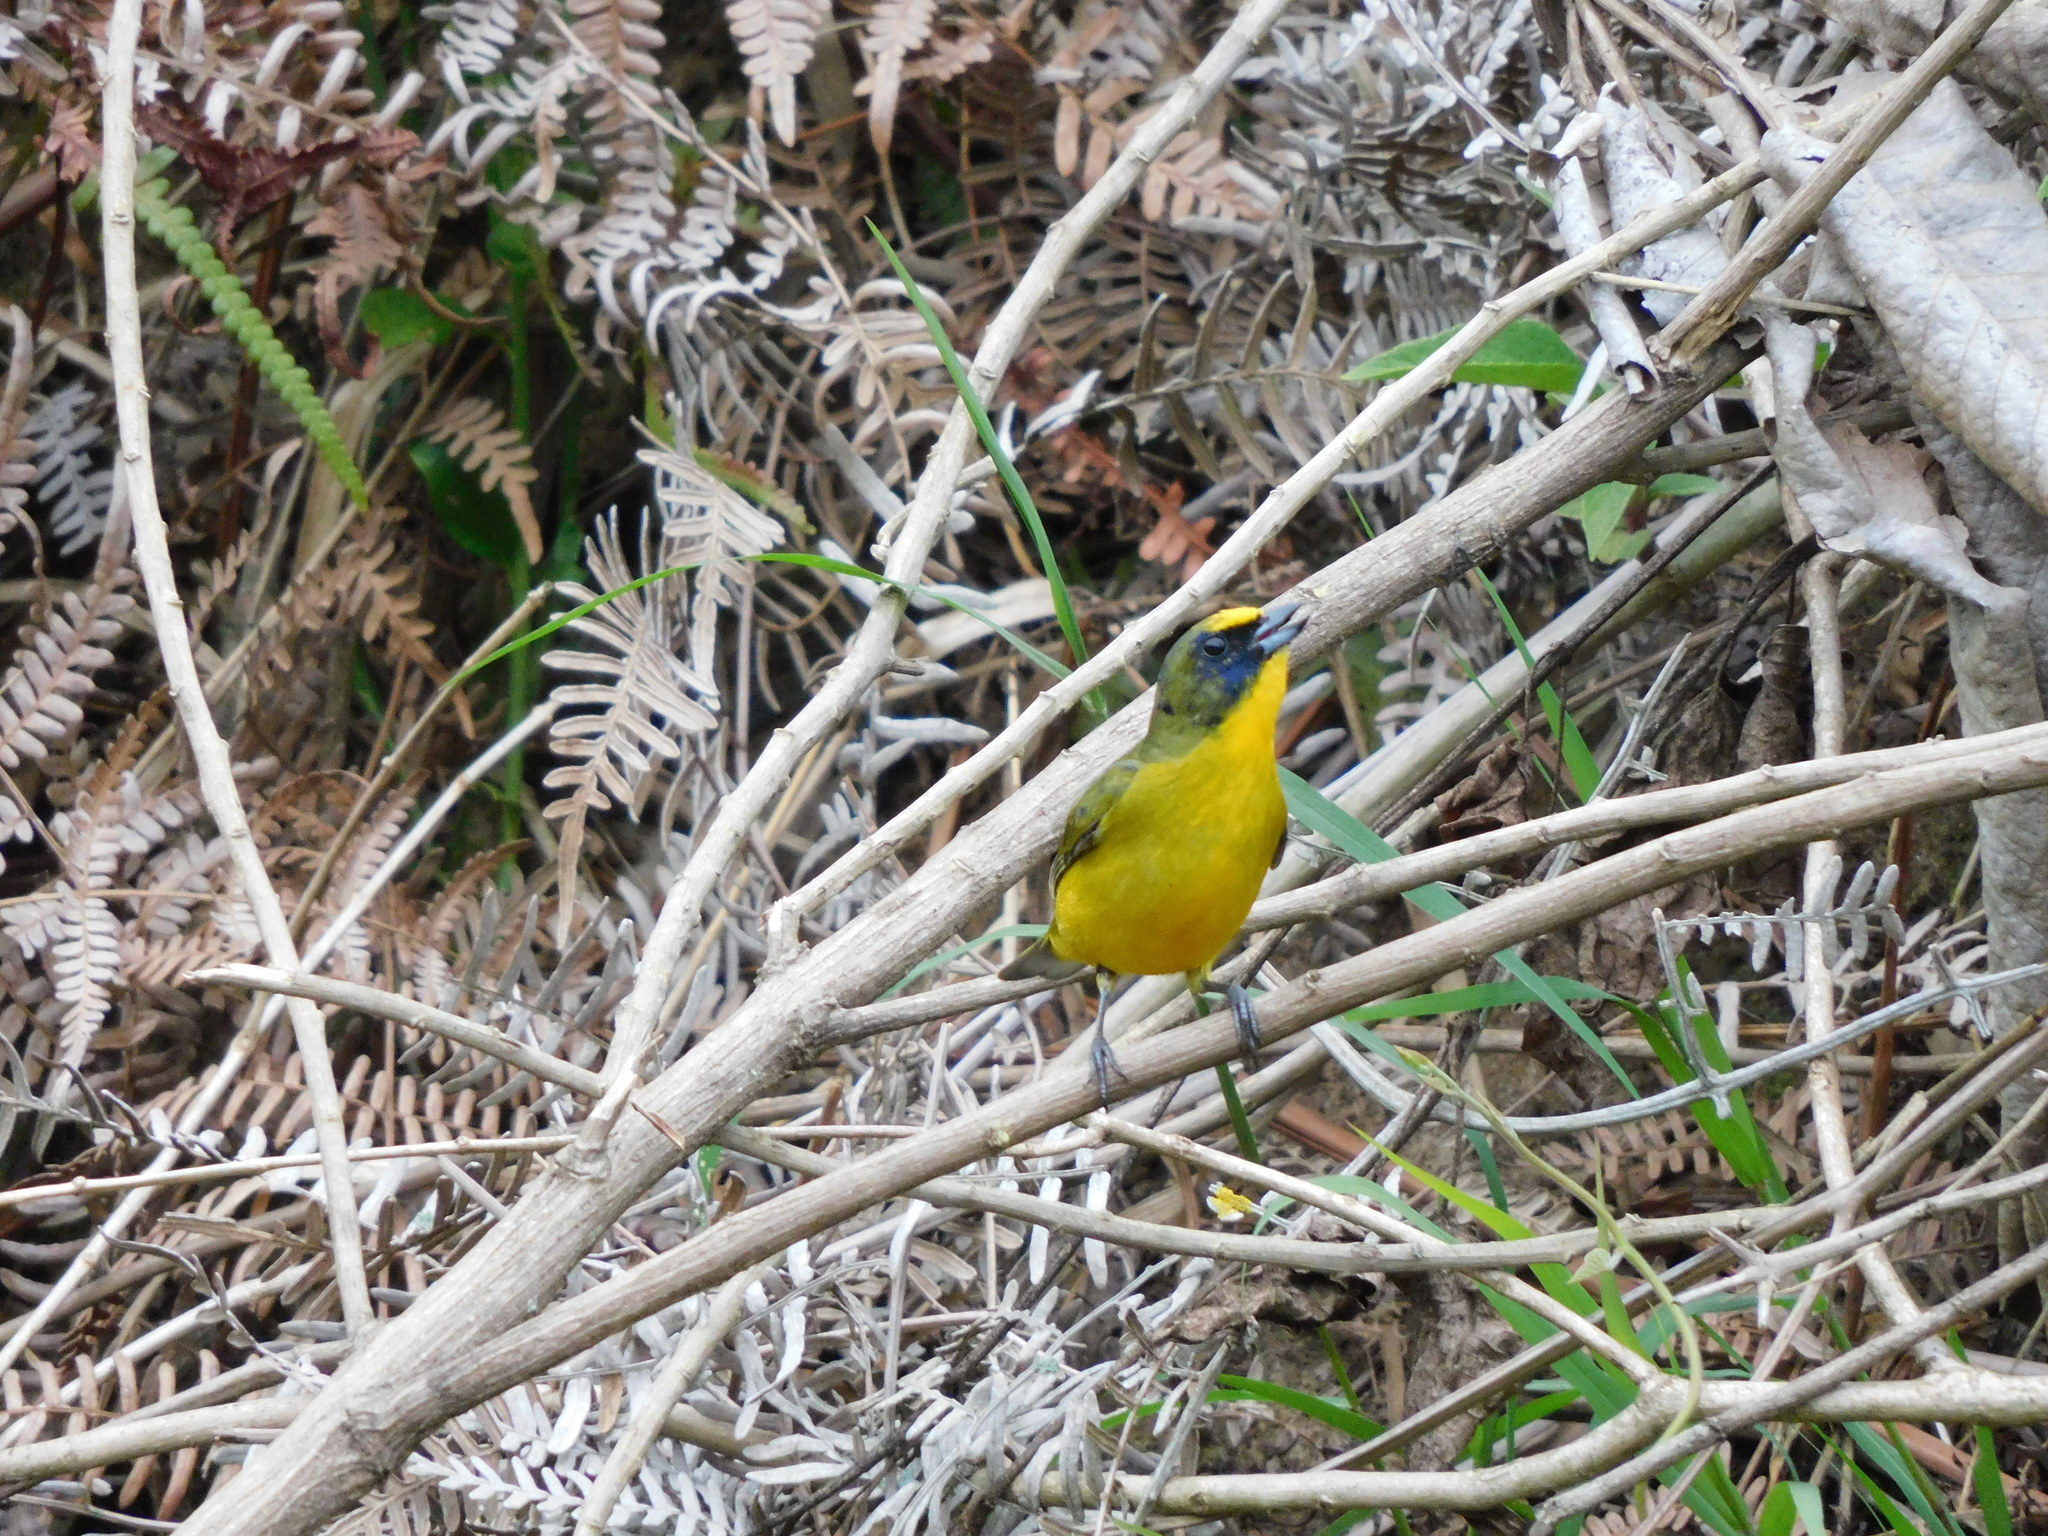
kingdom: Animalia
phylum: Chordata
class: Aves
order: Passeriformes
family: Fringillidae
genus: Euphonia
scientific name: Euphonia laniirostris
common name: Thick-billed euphonia
